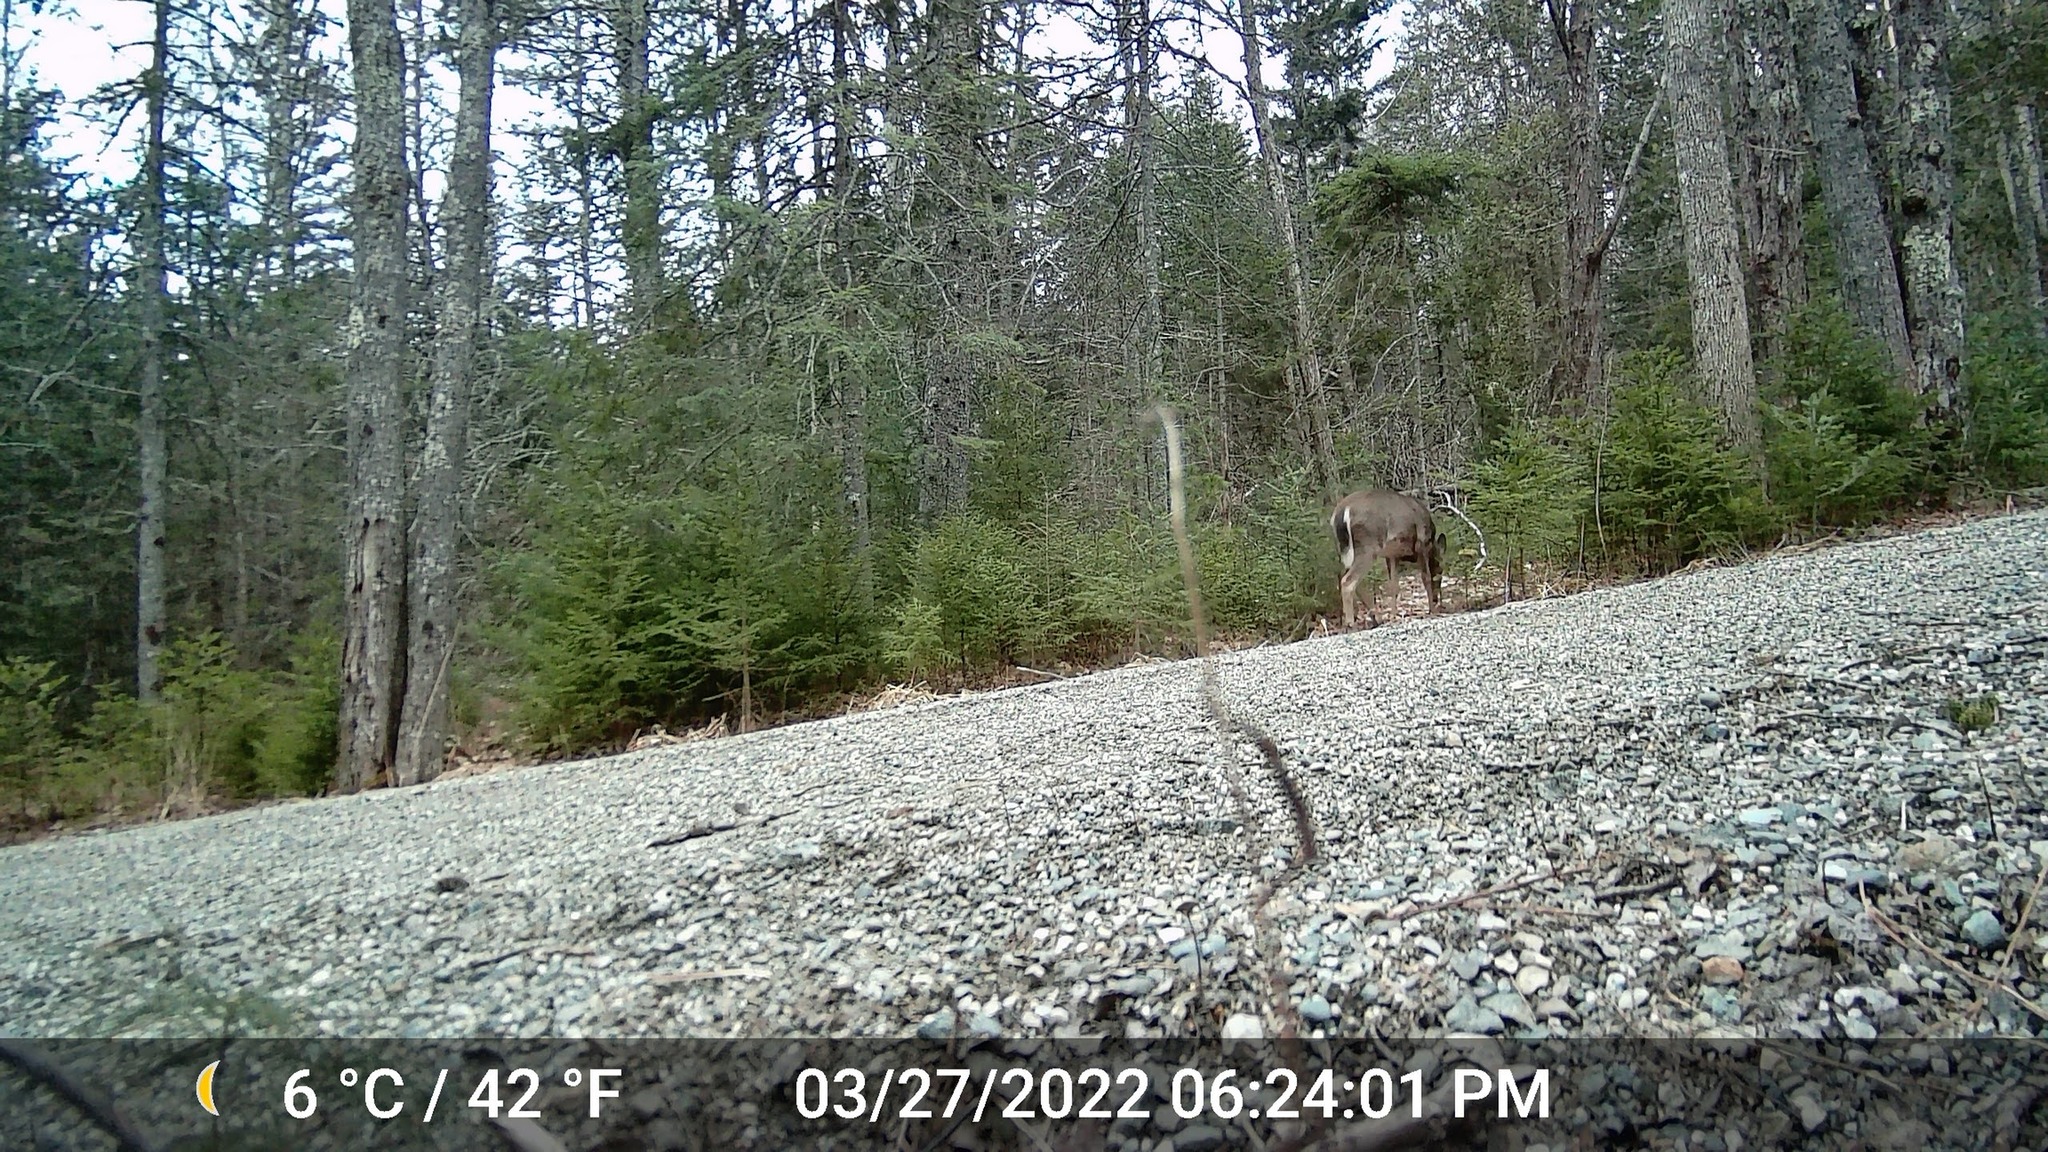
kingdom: Animalia
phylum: Chordata
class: Mammalia
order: Artiodactyla
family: Cervidae
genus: Odocoileus
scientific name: Odocoileus virginianus
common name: White-tailed deer
